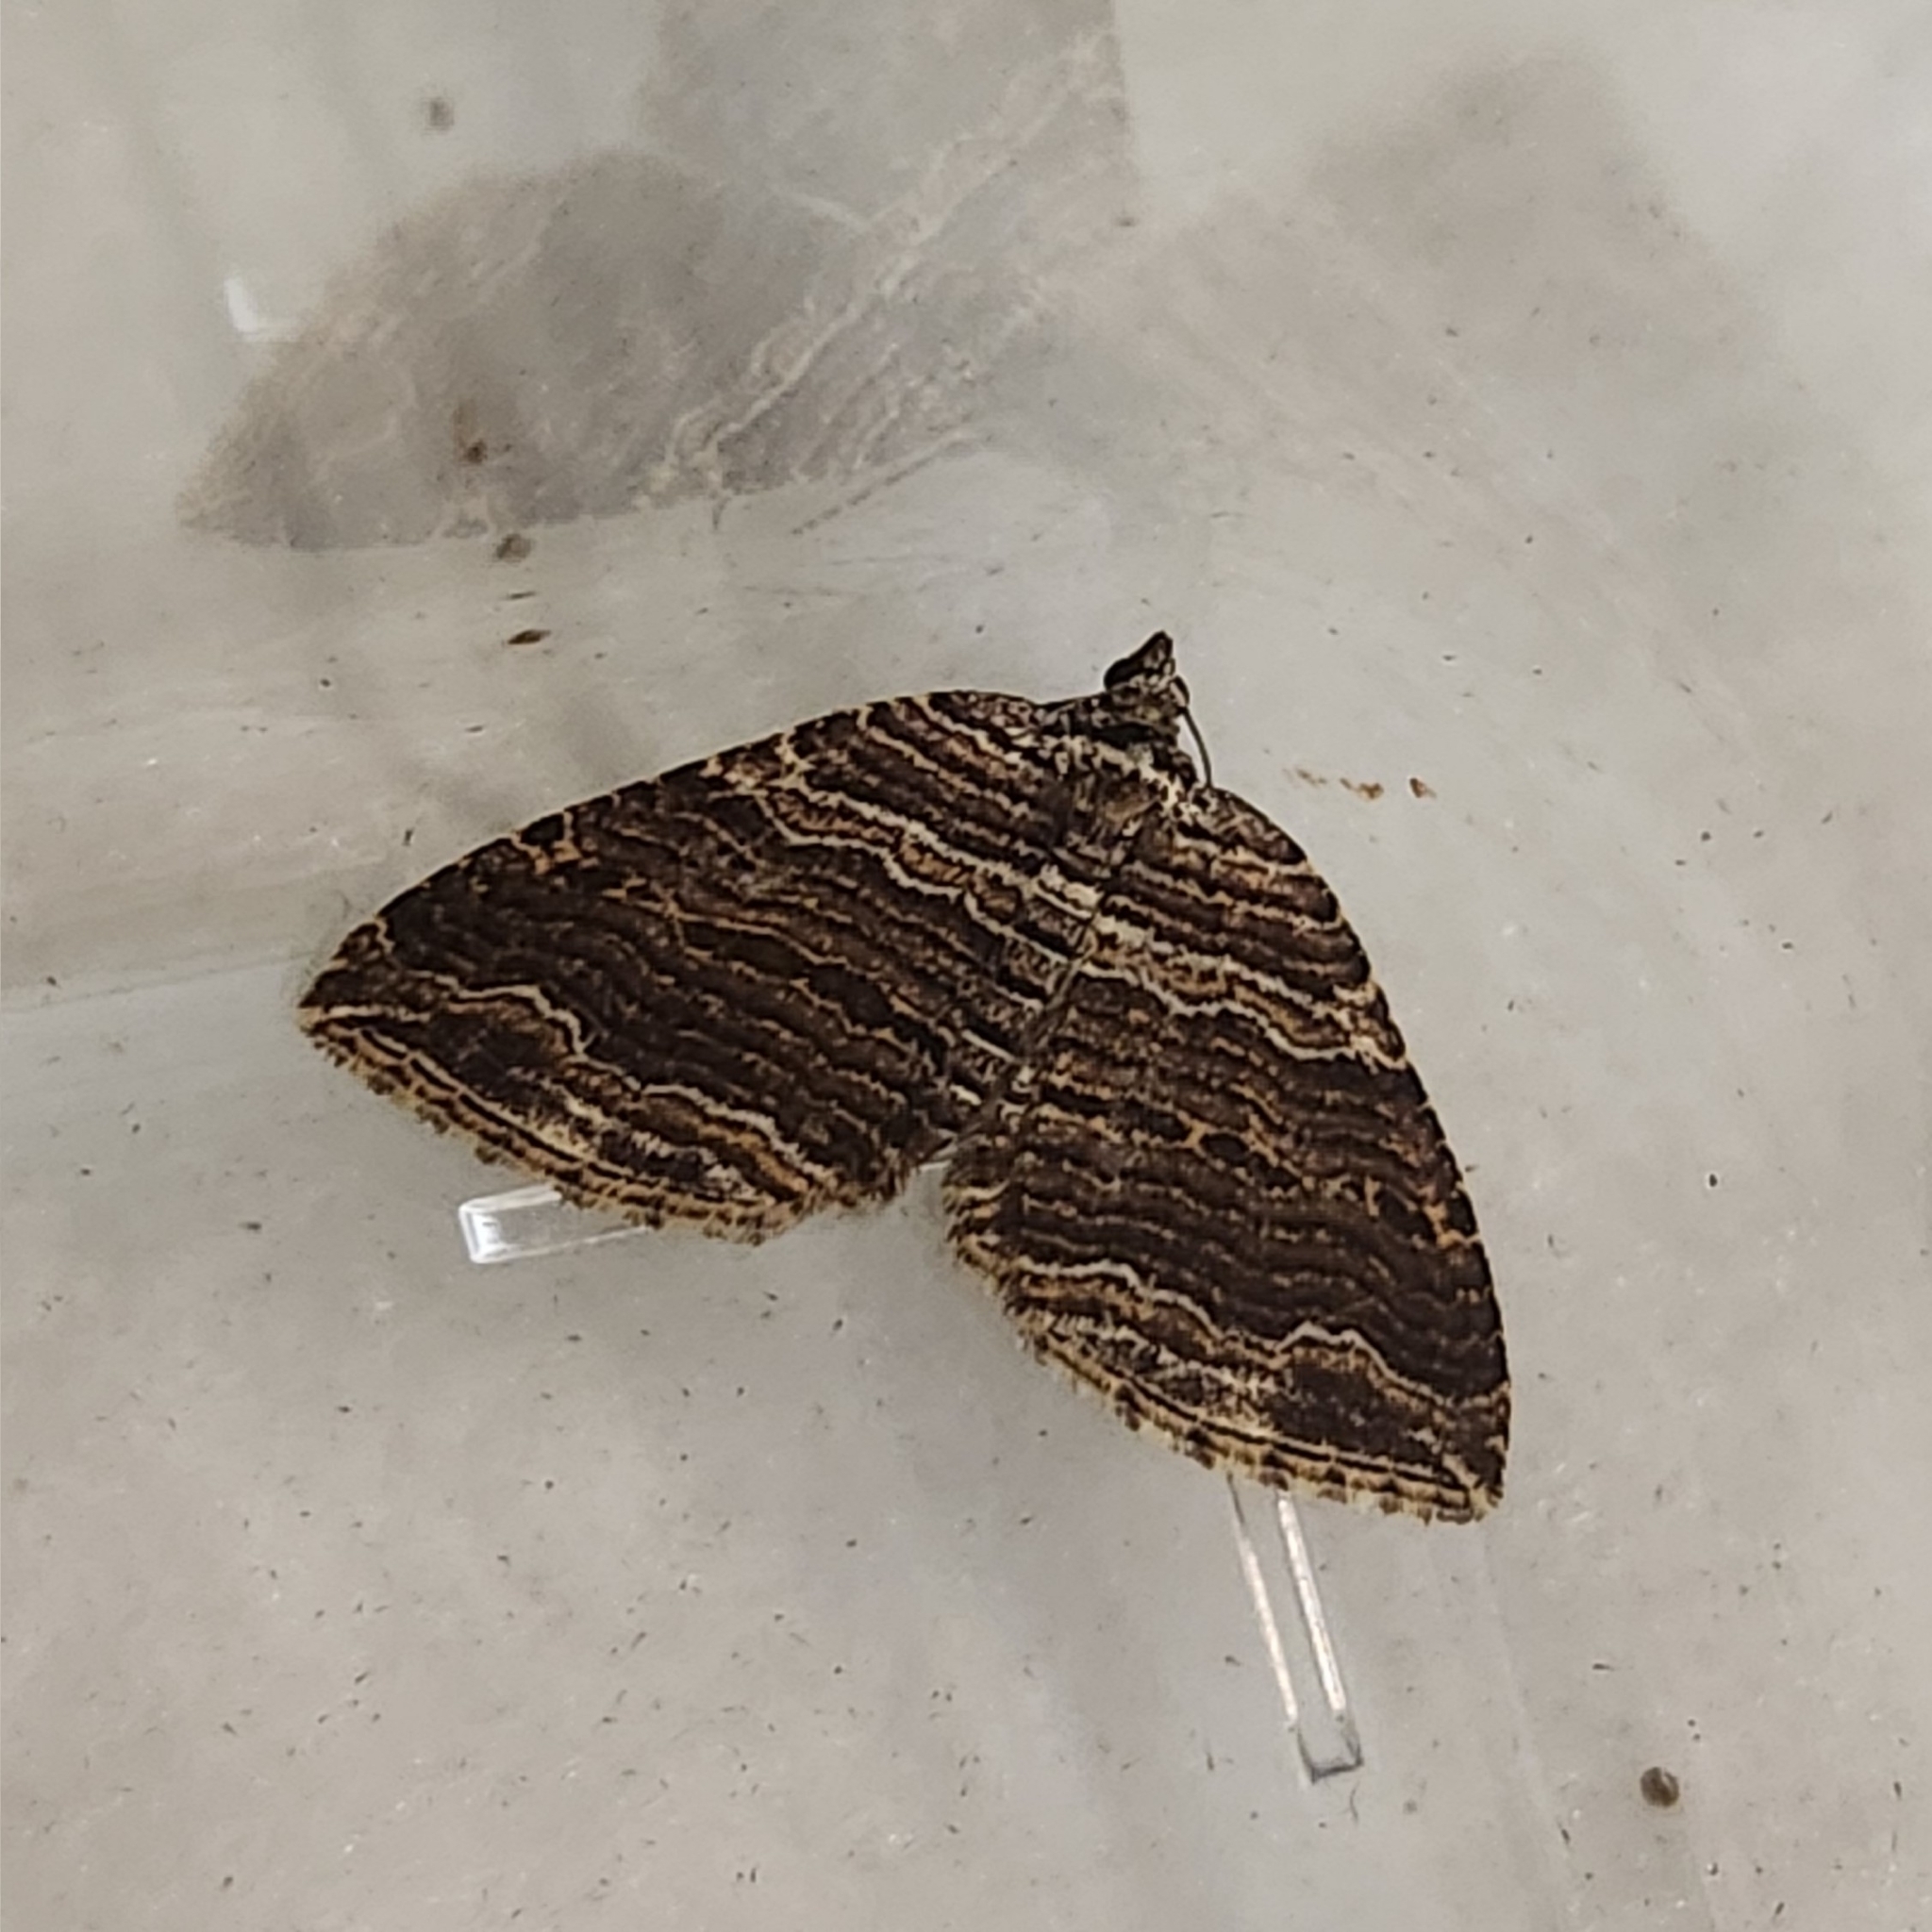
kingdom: Animalia
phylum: Arthropoda
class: Insecta
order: Lepidoptera
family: Geometridae
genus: Anticlea
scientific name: Anticlea multiferata
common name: Many-lined carpet
